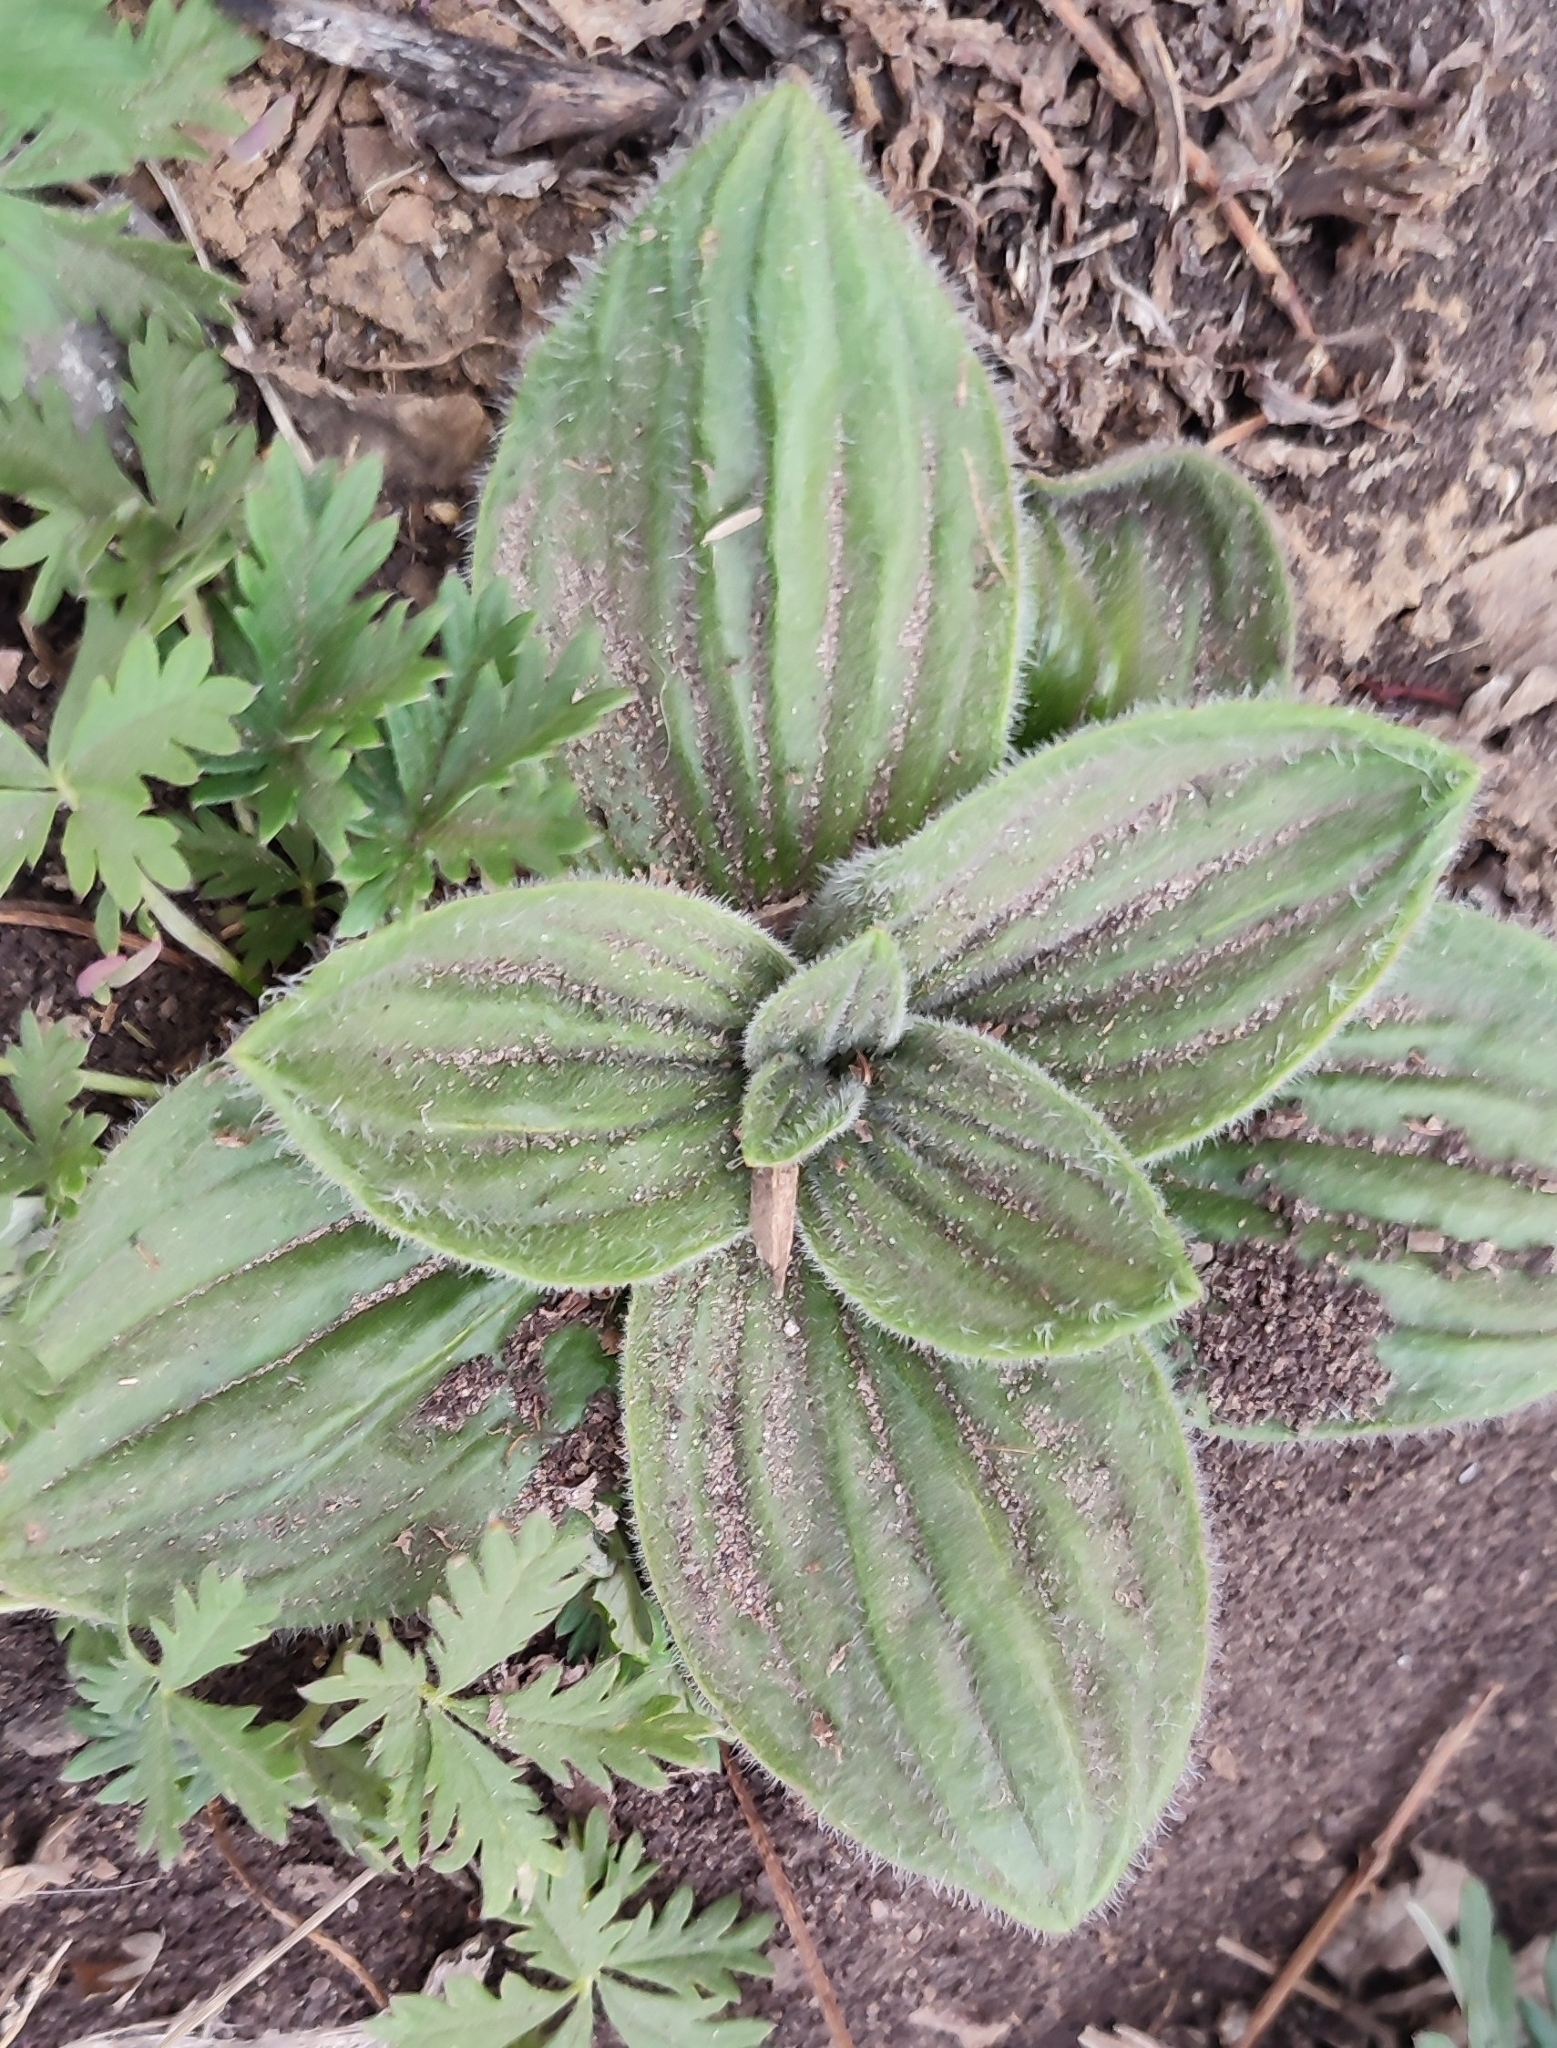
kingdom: Plantae
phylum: Tracheophyta
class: Magnoliopsida
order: Lamiales
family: Plantaginaceae
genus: Plantago
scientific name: Plantago media
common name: Hoary plantain
